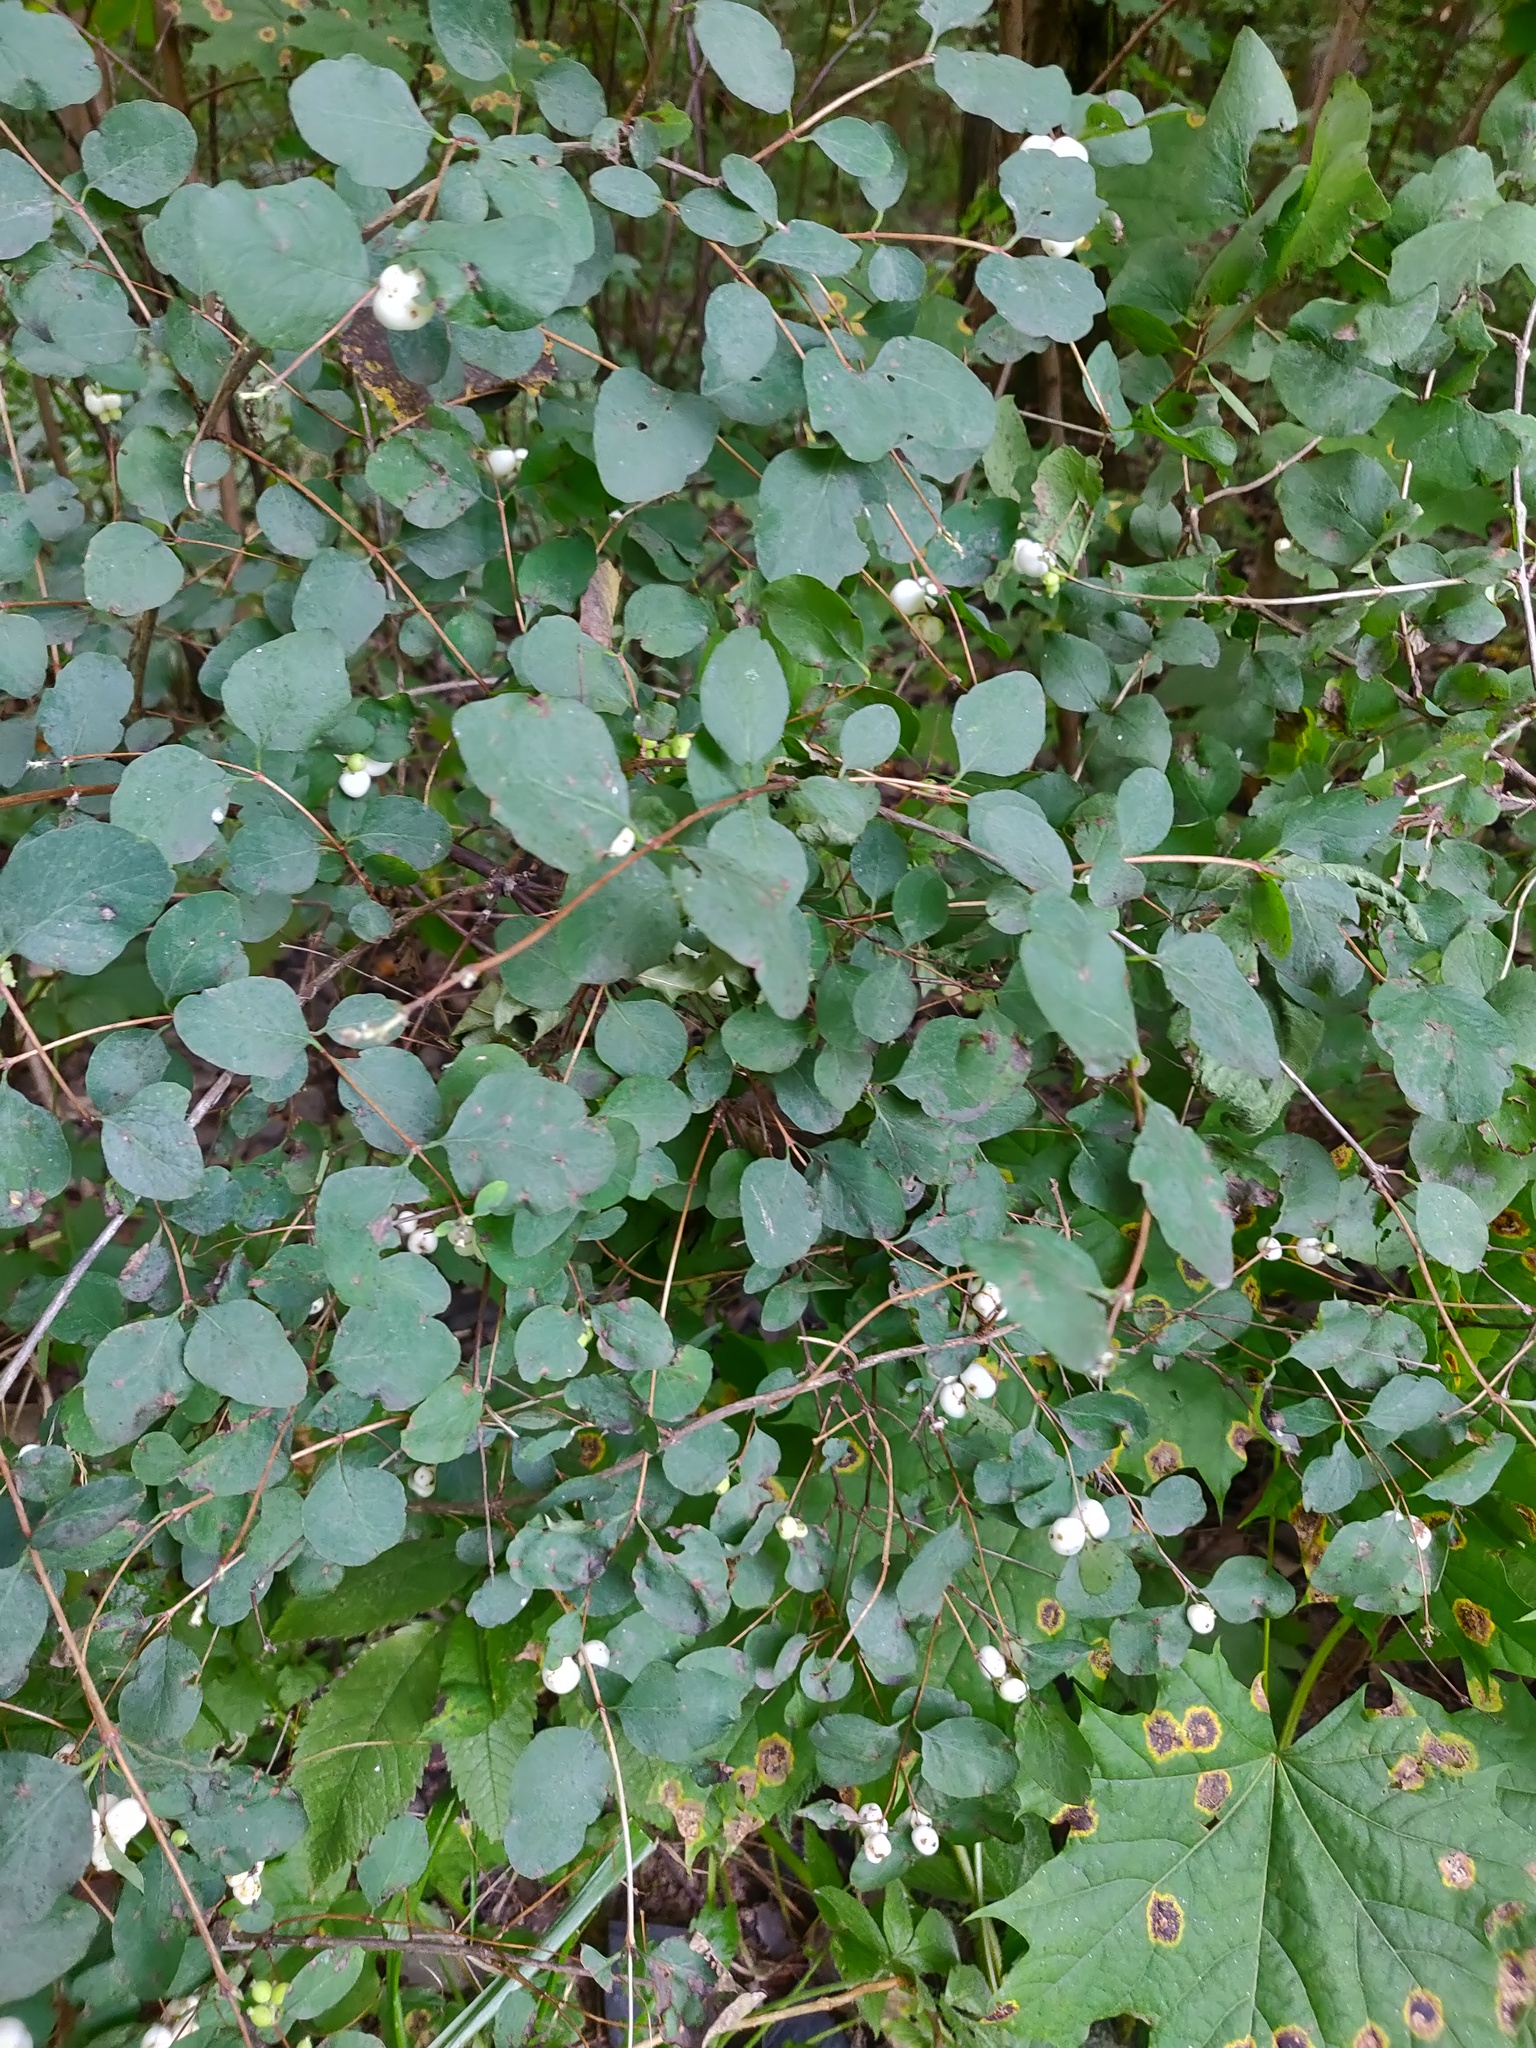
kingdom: Plantae
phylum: Tracheophyta
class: Magnoliopsida
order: Dipsacales
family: Caprifoliaceae
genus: Symphoricarpos
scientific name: Symphoricarpos albus
